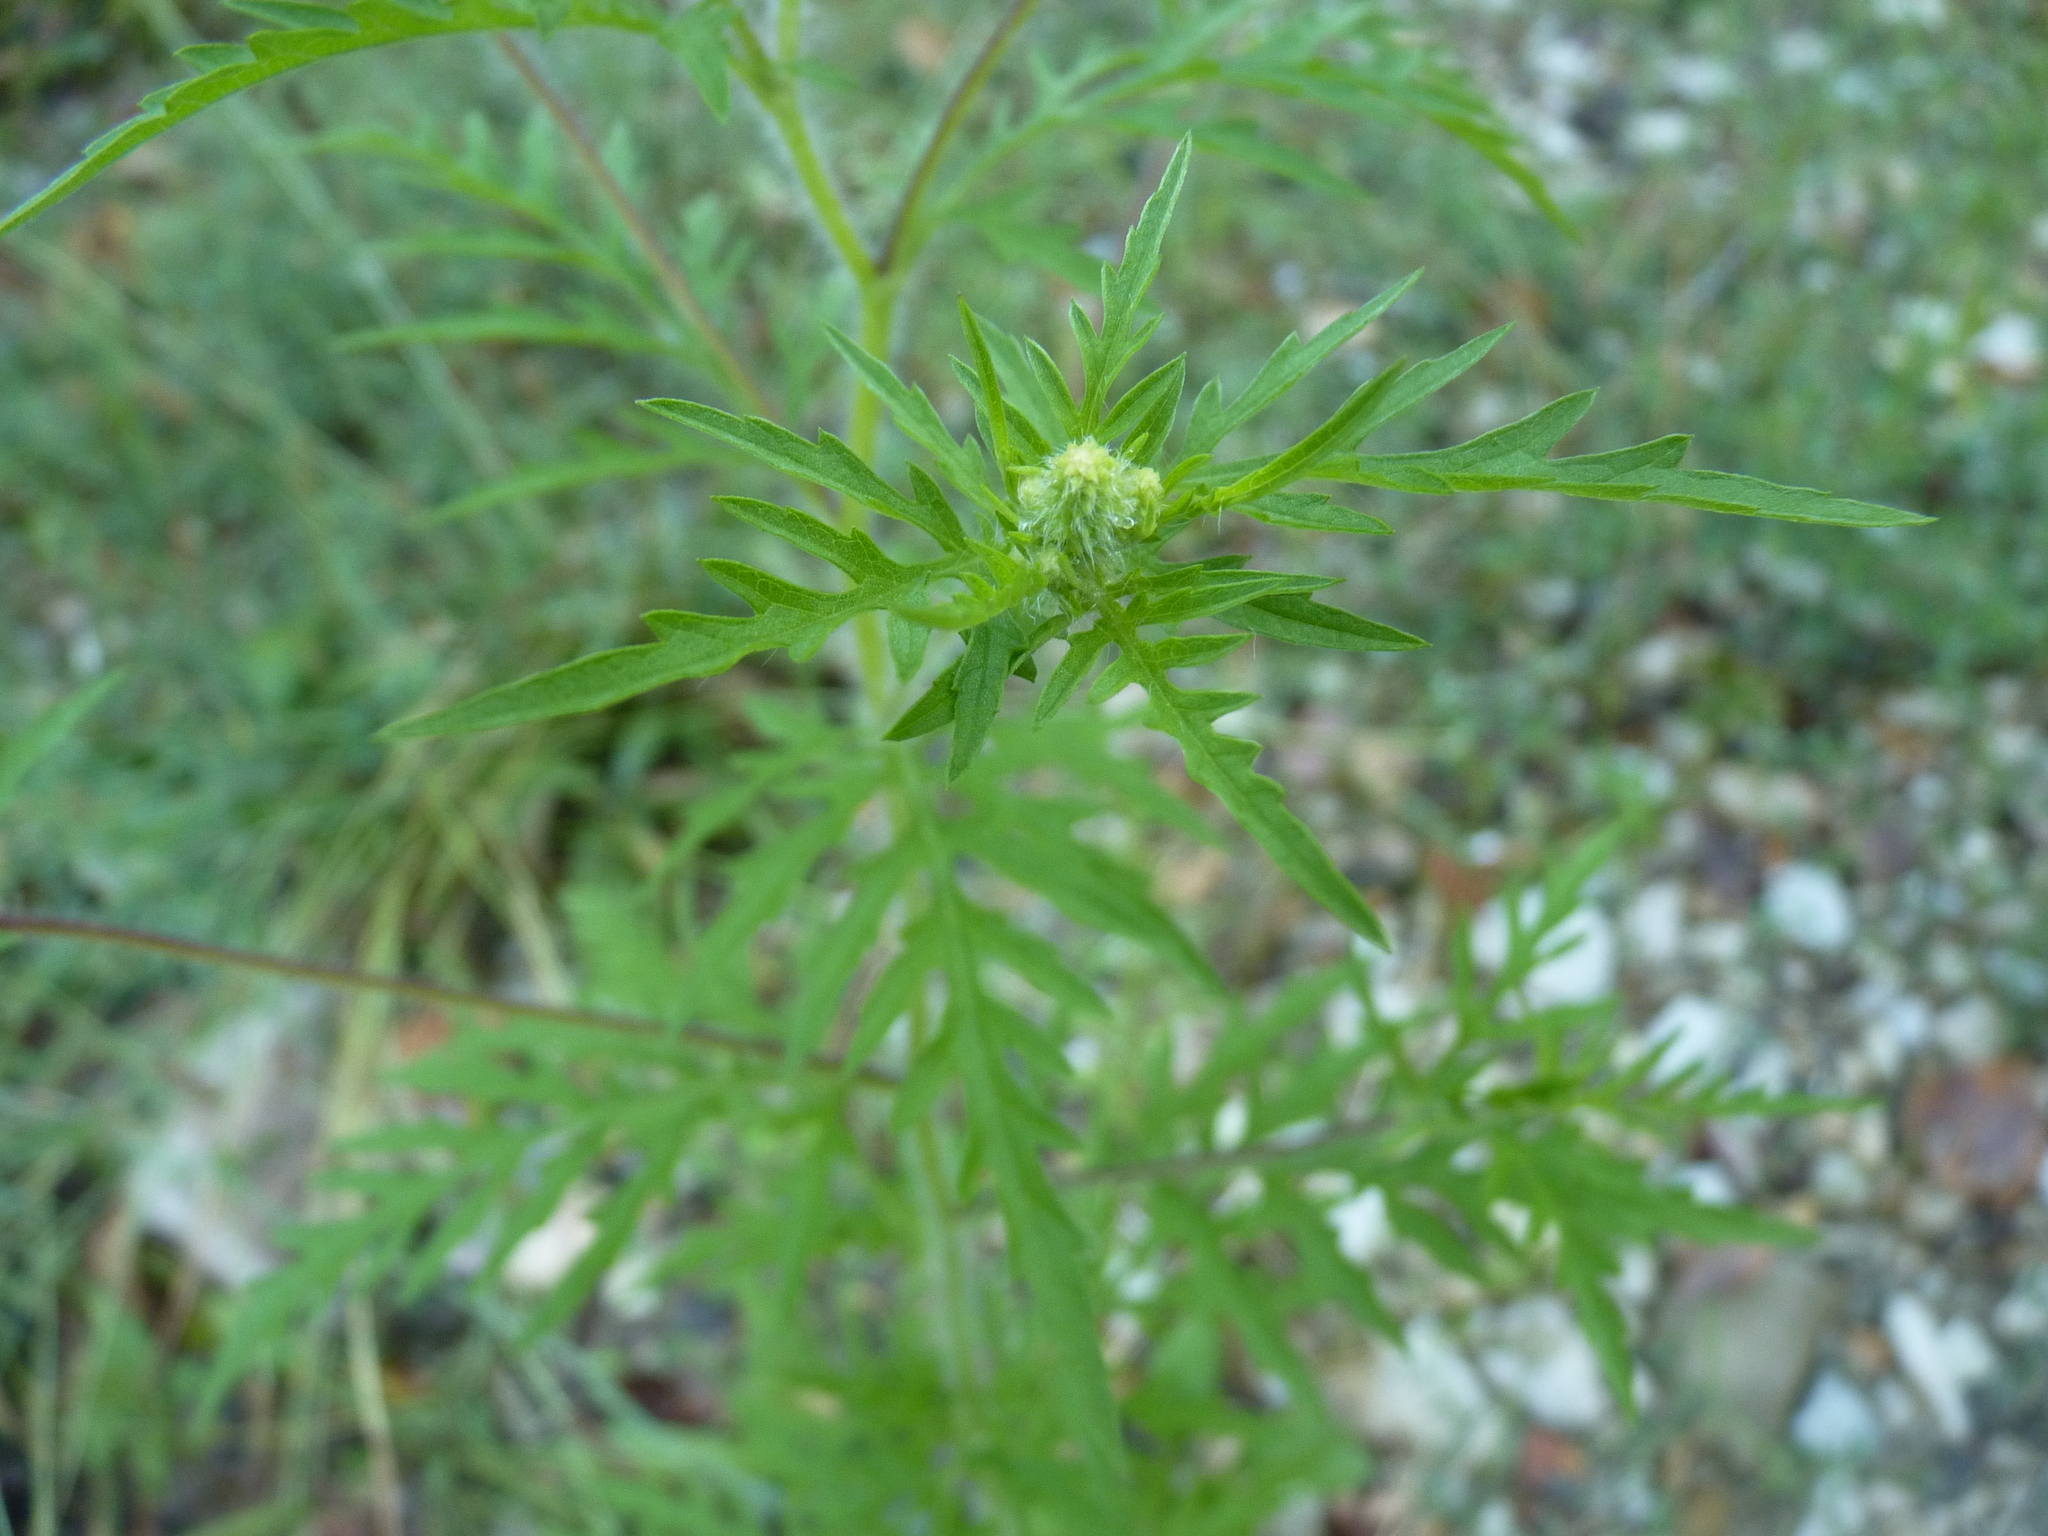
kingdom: Plantae
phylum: Tracheophyta
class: Magnoliopsida
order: Asterales
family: Asteraceae
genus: Ambrosia
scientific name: Ambrosia artemisiifolia
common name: Annual ragweed
